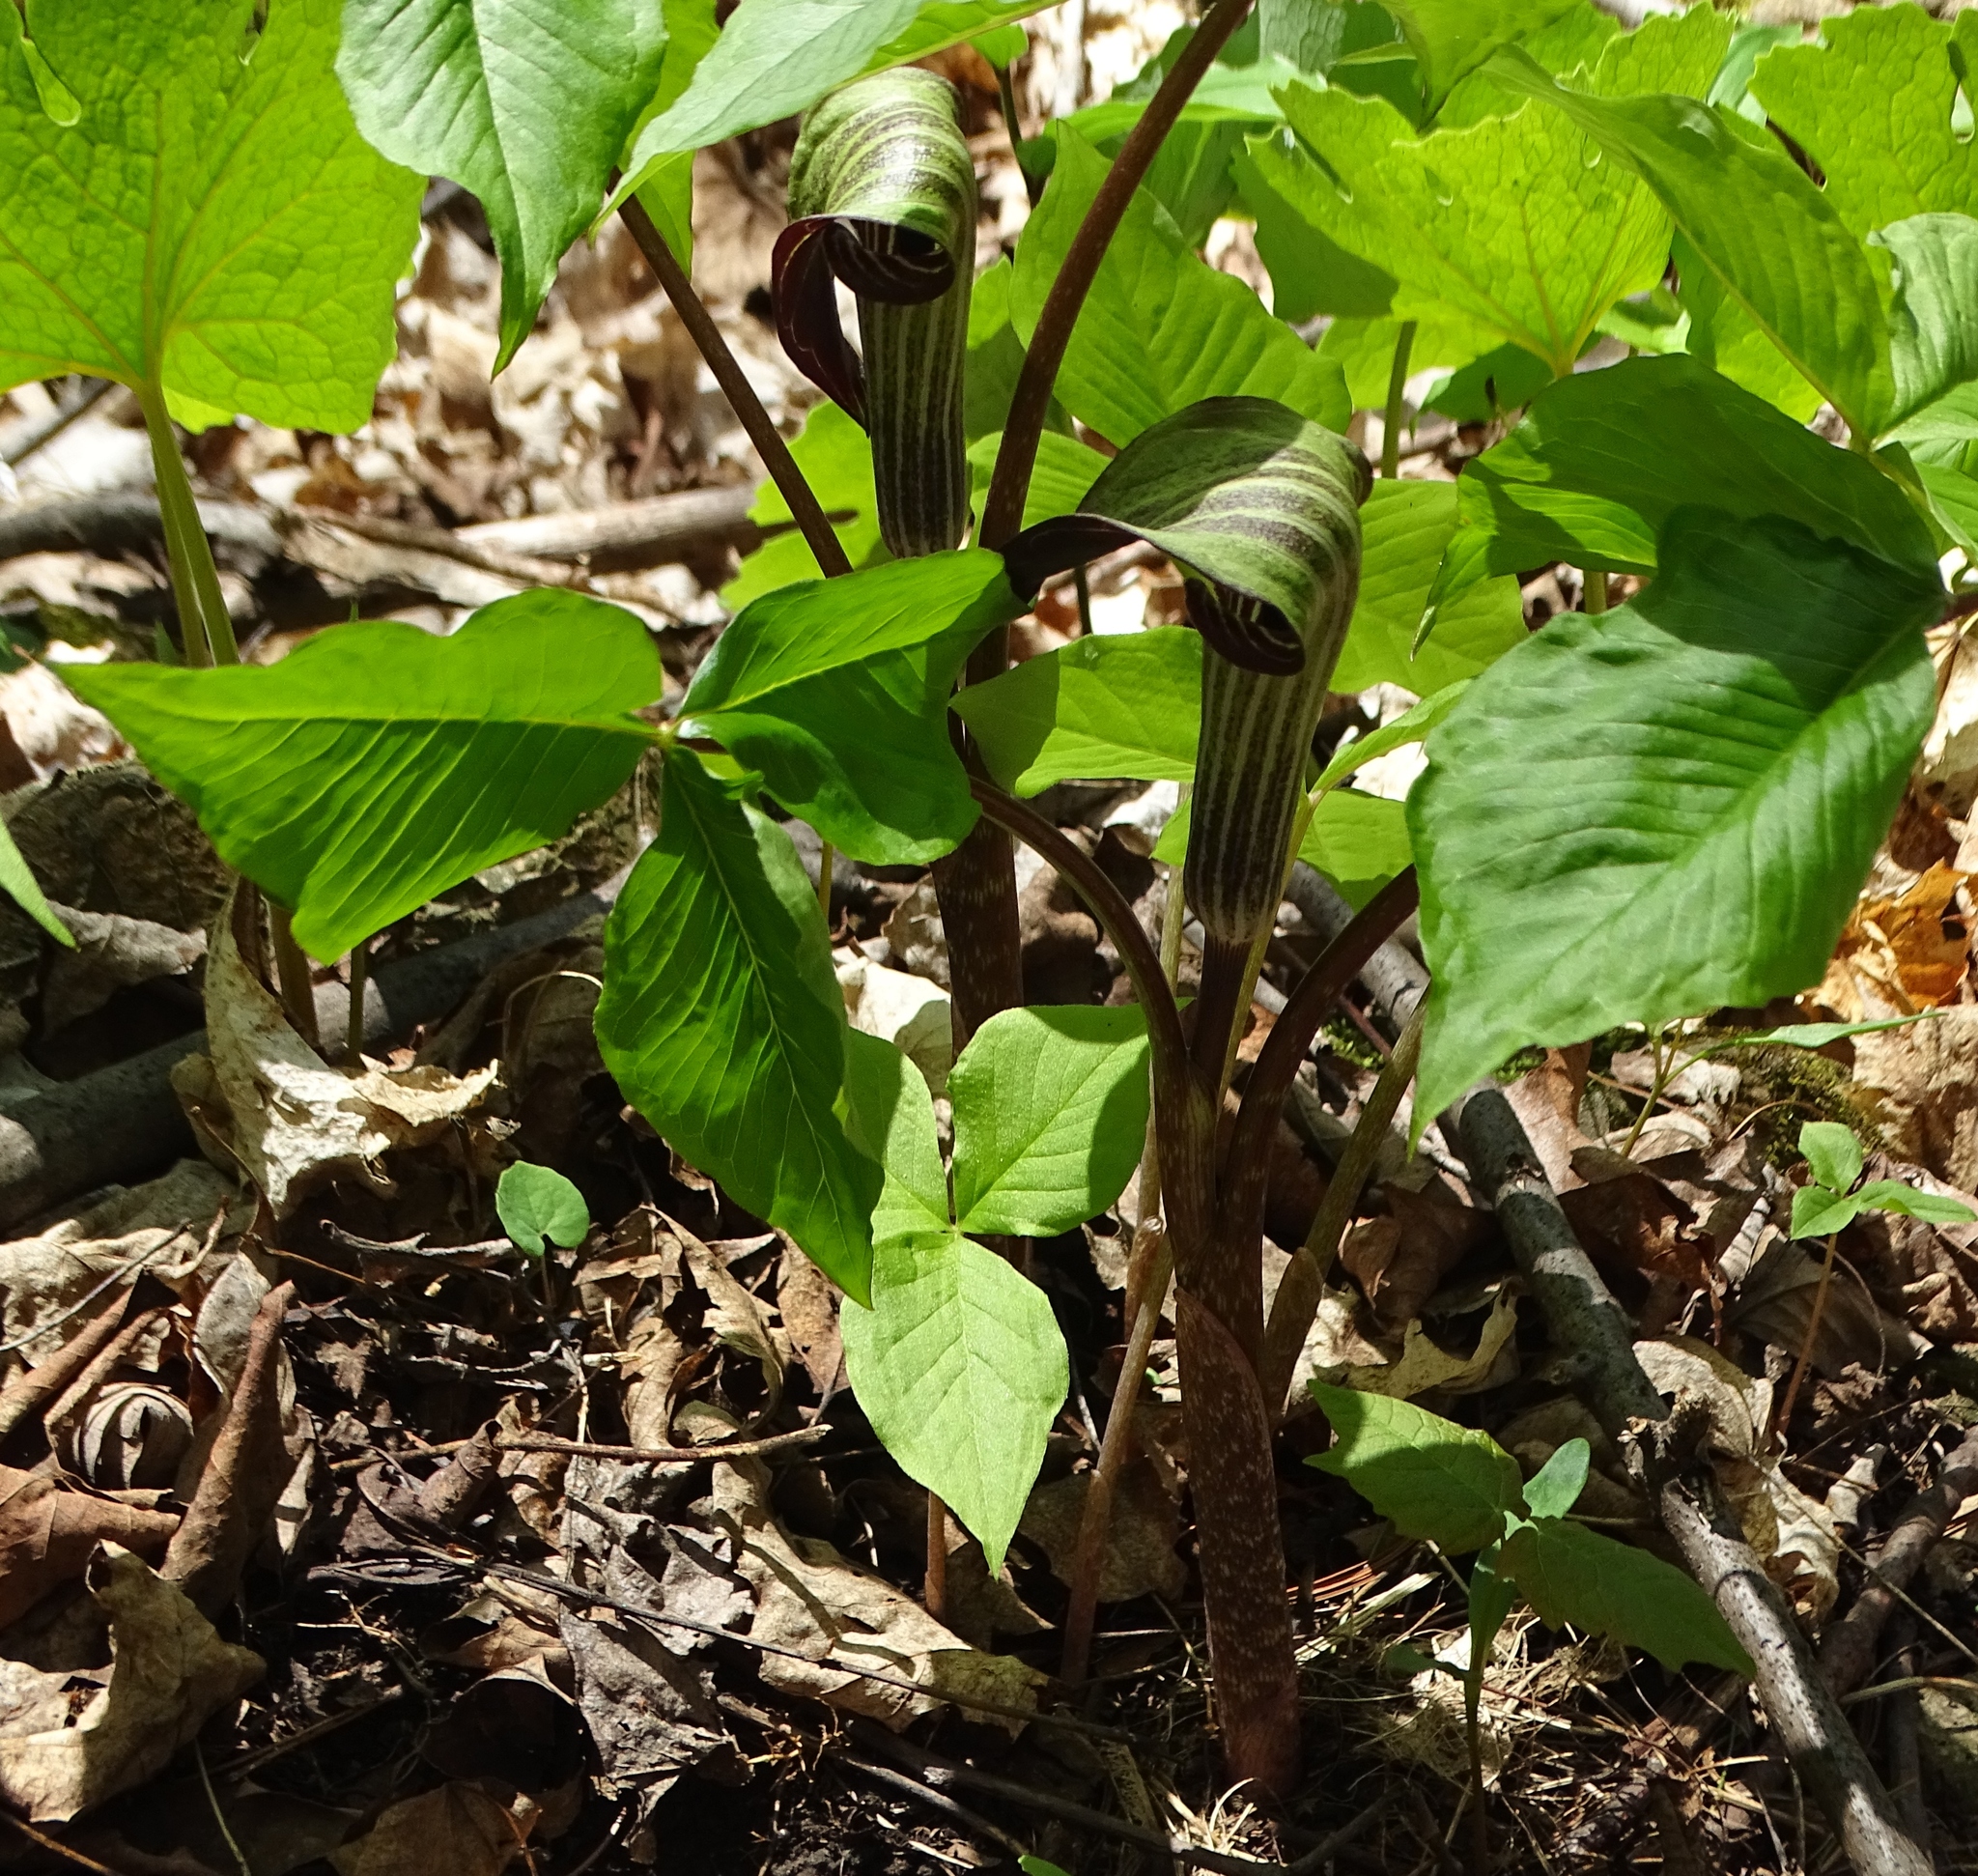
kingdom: Plantae
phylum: Tracheophyta
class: Liliopsida
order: Alismatales
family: Araceae
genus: Arisaema
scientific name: Arisaema triphyllum
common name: Jack-in-the-pulpit
